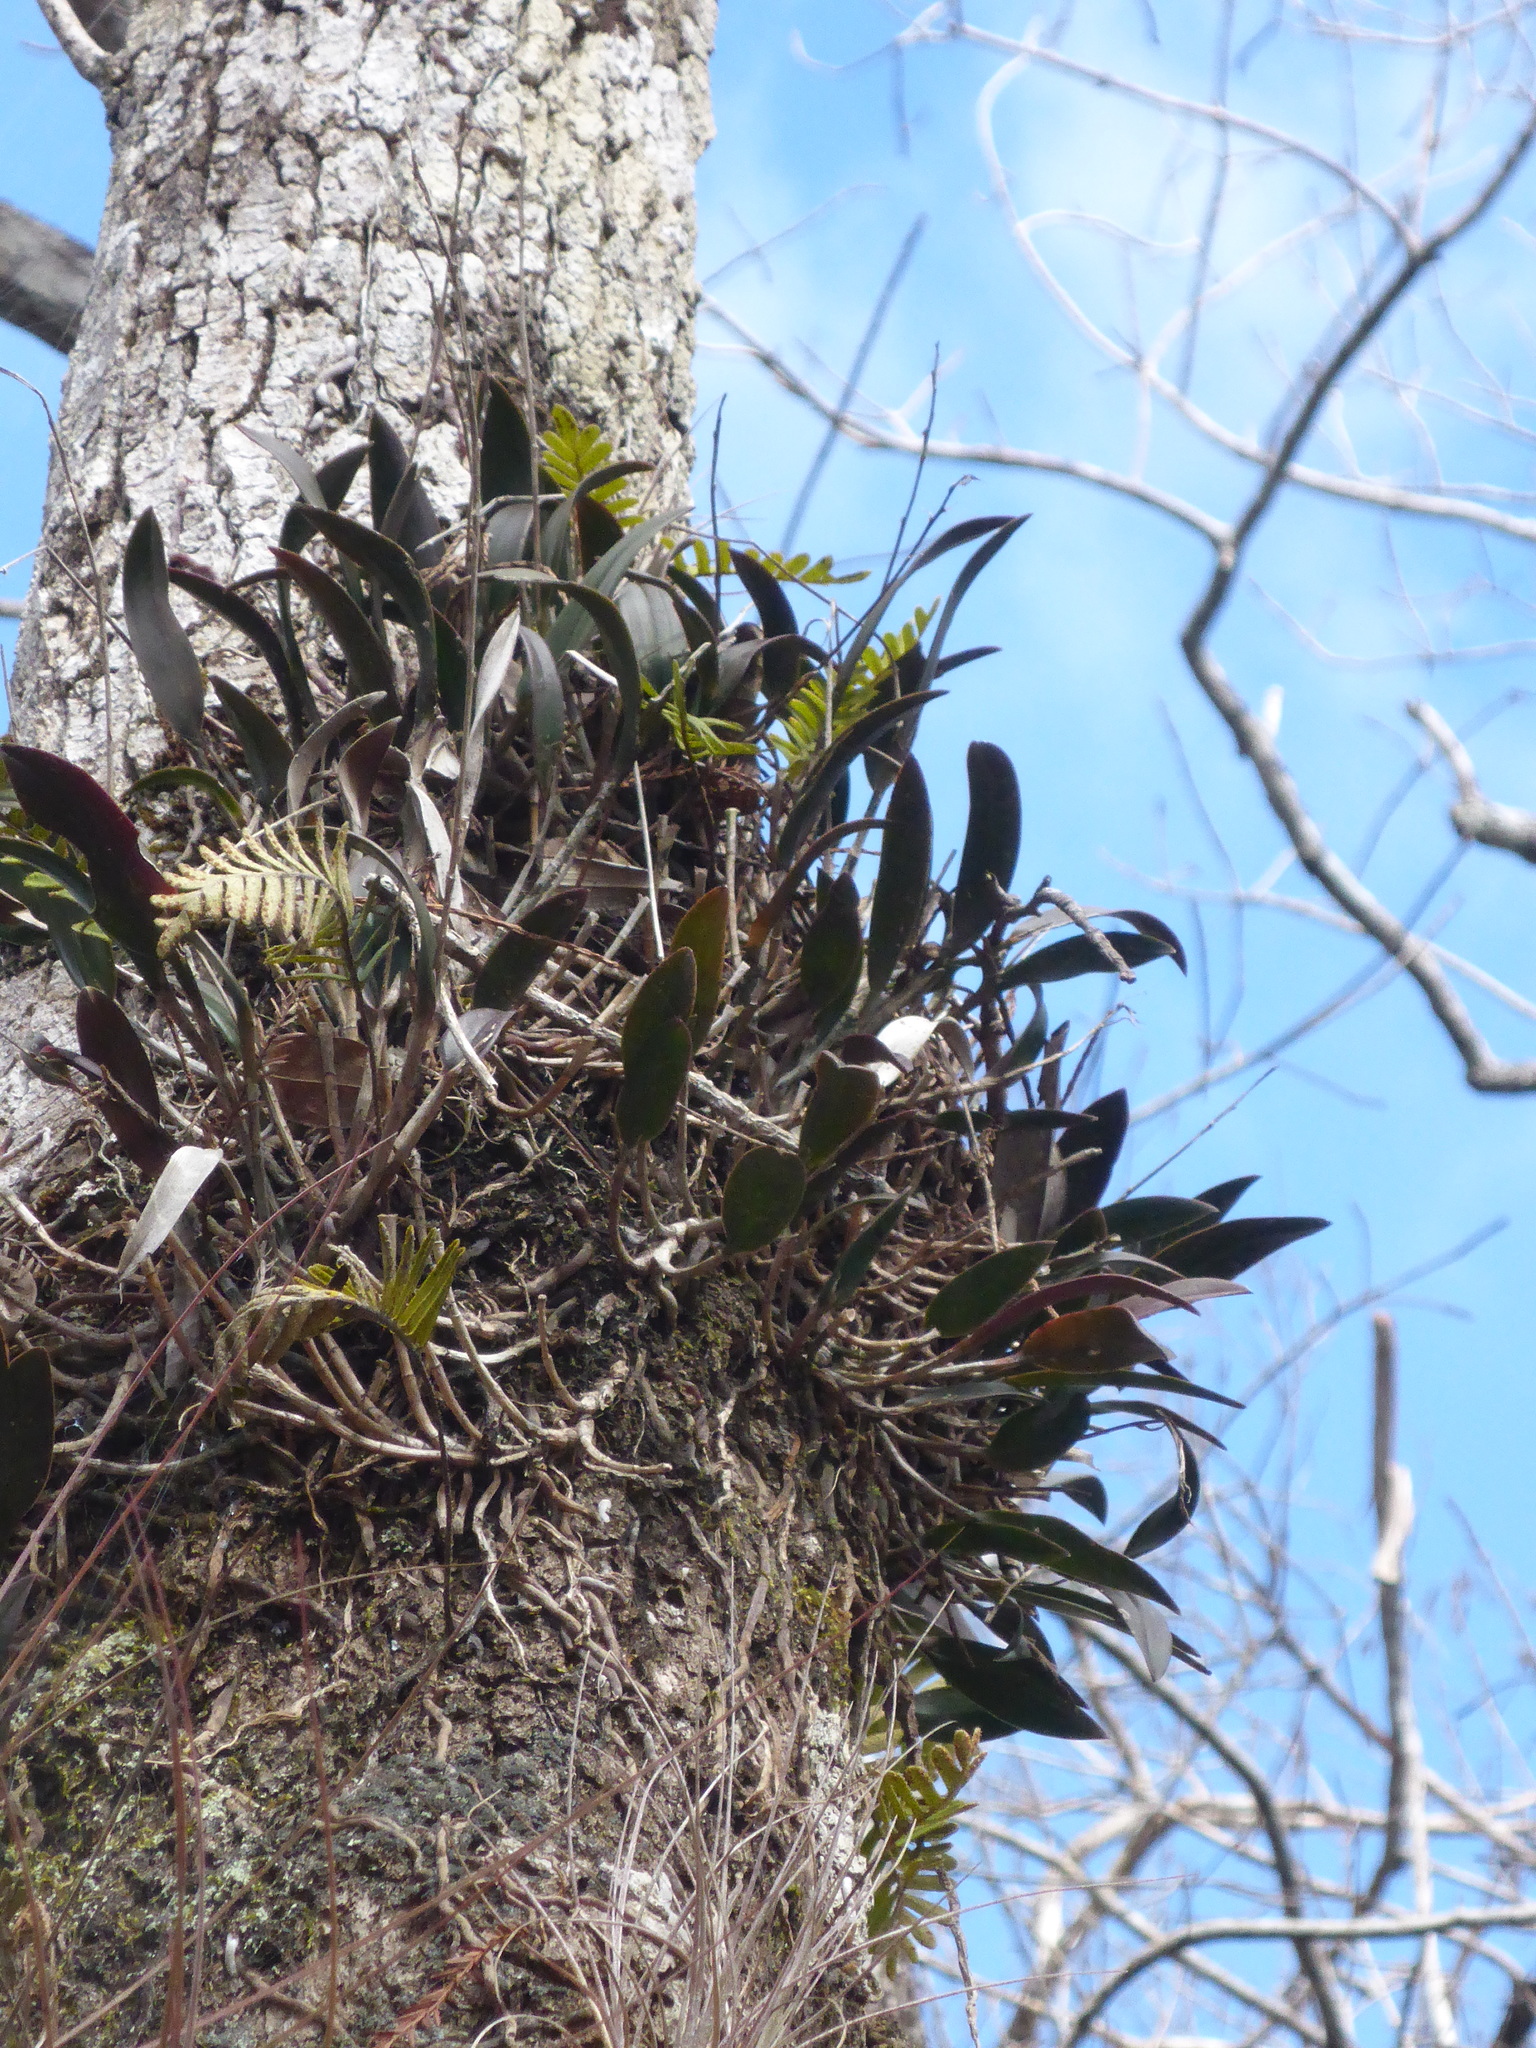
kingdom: Plantae
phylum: Tracheophyta
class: Liliopsida
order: Asparagales
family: Orchidaceae
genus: Epidendrum
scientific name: Epidendrum conopseum
